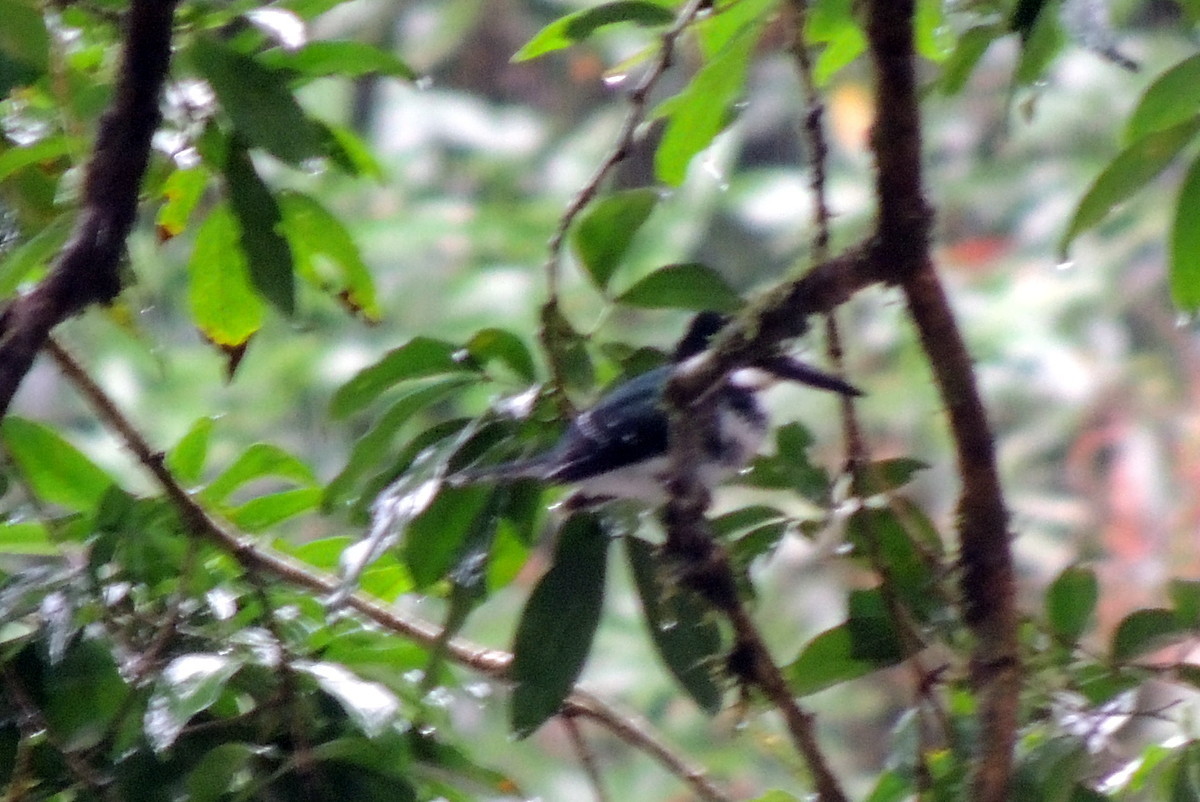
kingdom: Animalia
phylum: Chordata
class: Aves
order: Coraciiformes
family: Alcedinidae
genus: Chloroceryle
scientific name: Chloroceryle americana
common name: Green kingfisher
